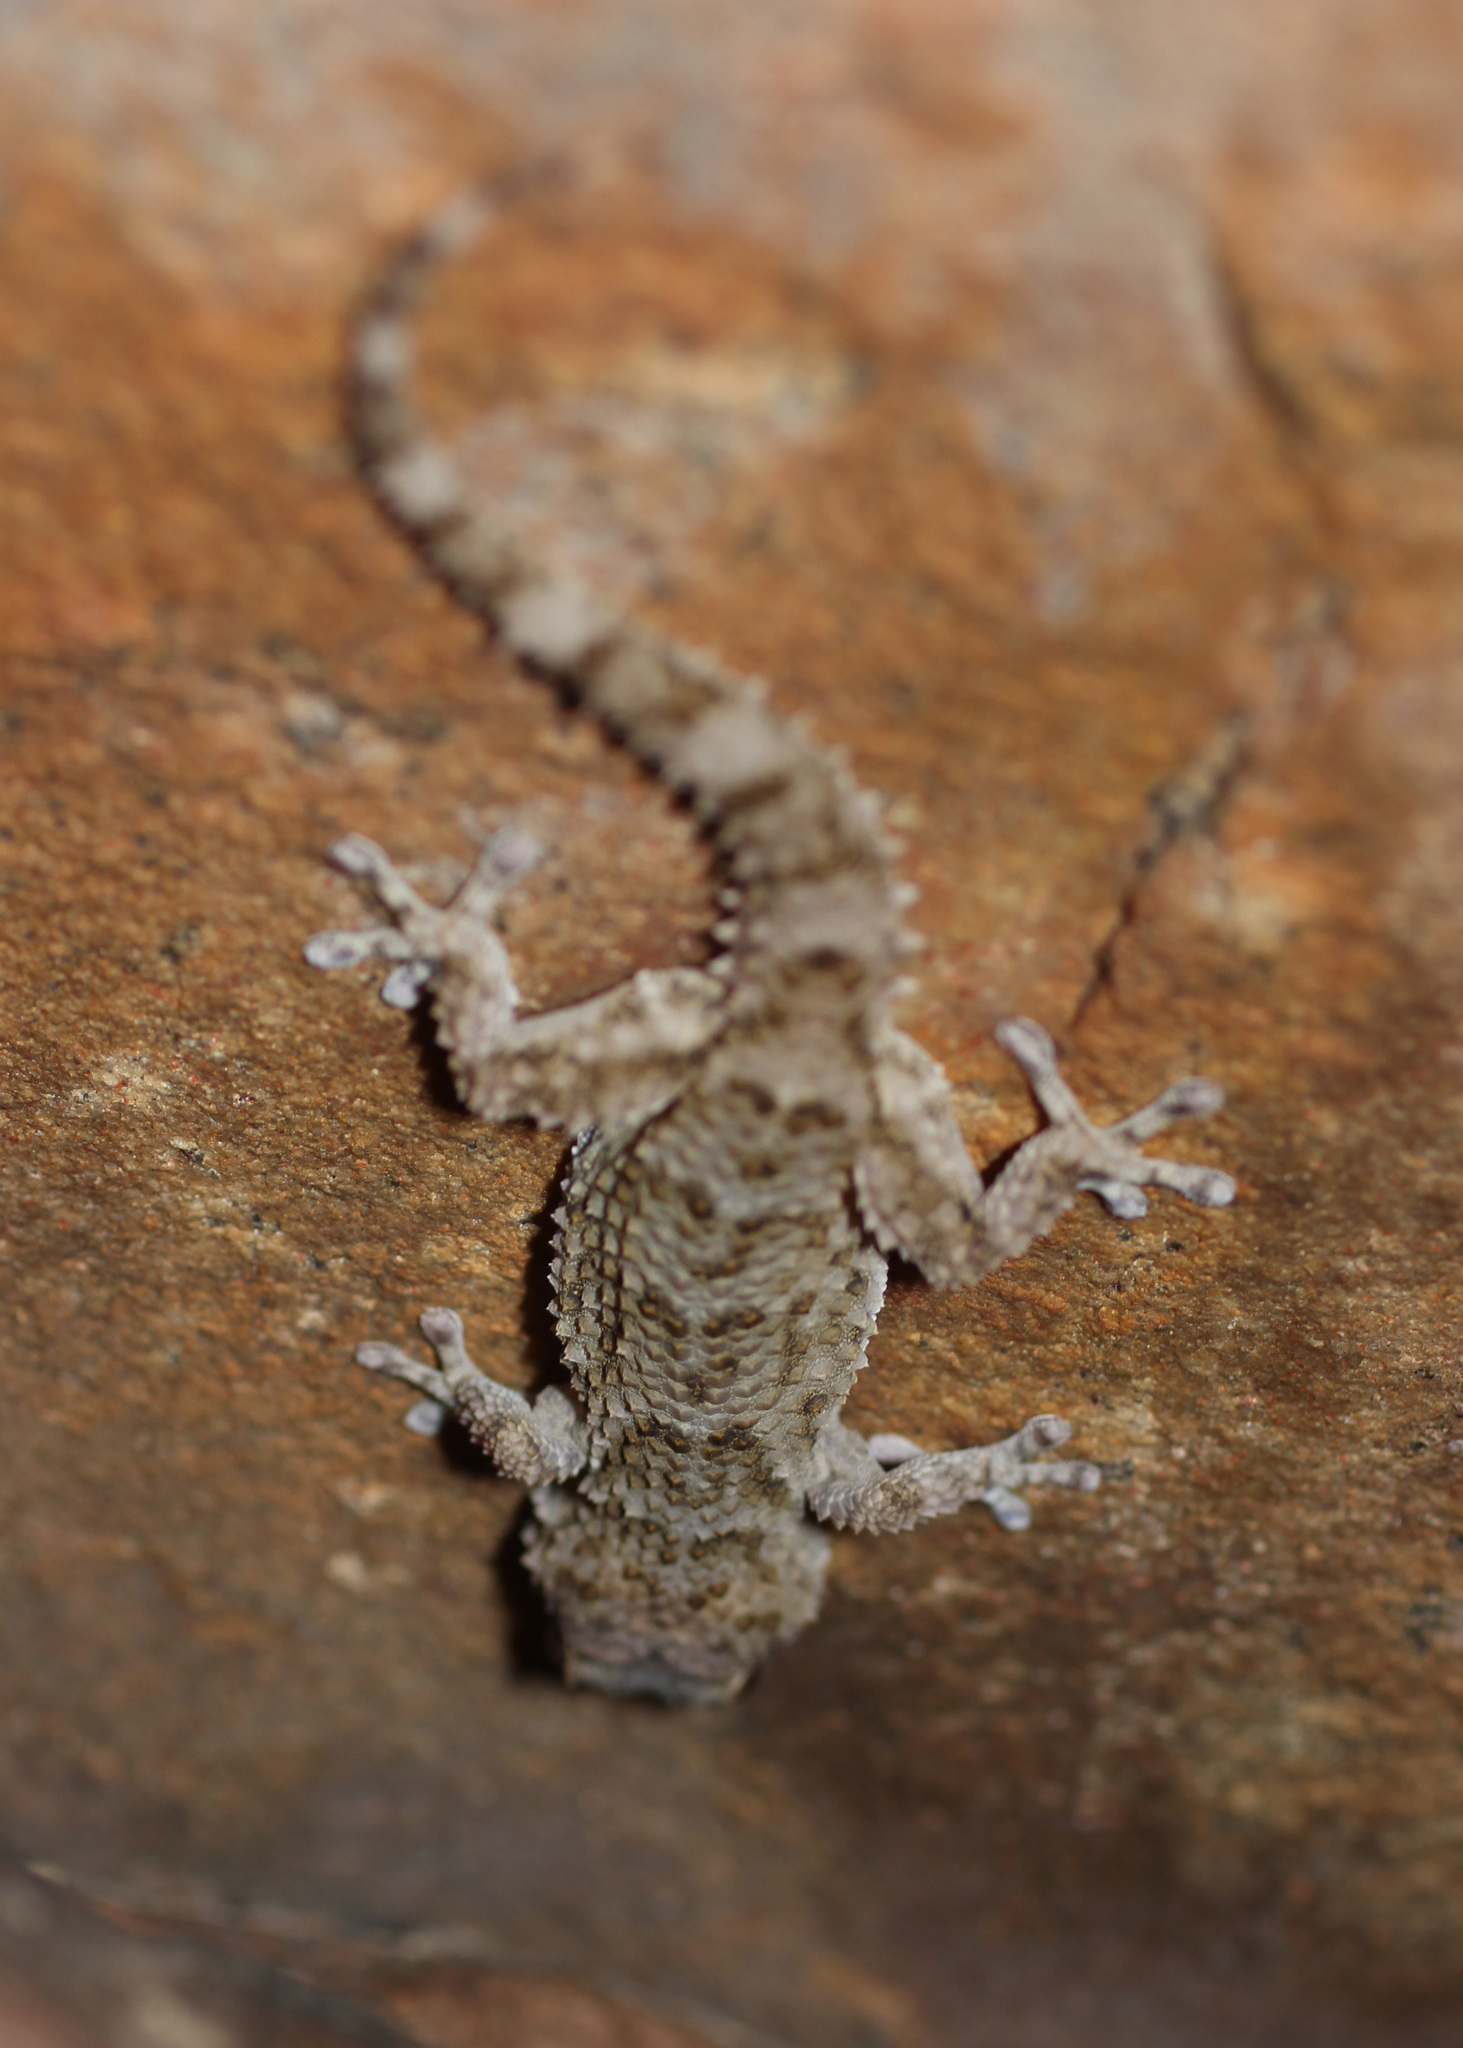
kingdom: Animalia
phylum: Chordata
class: Squamata
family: Gekkonidae
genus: Chondrodactylus
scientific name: Chondrodactylus bibronii
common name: Bibron's gecko
